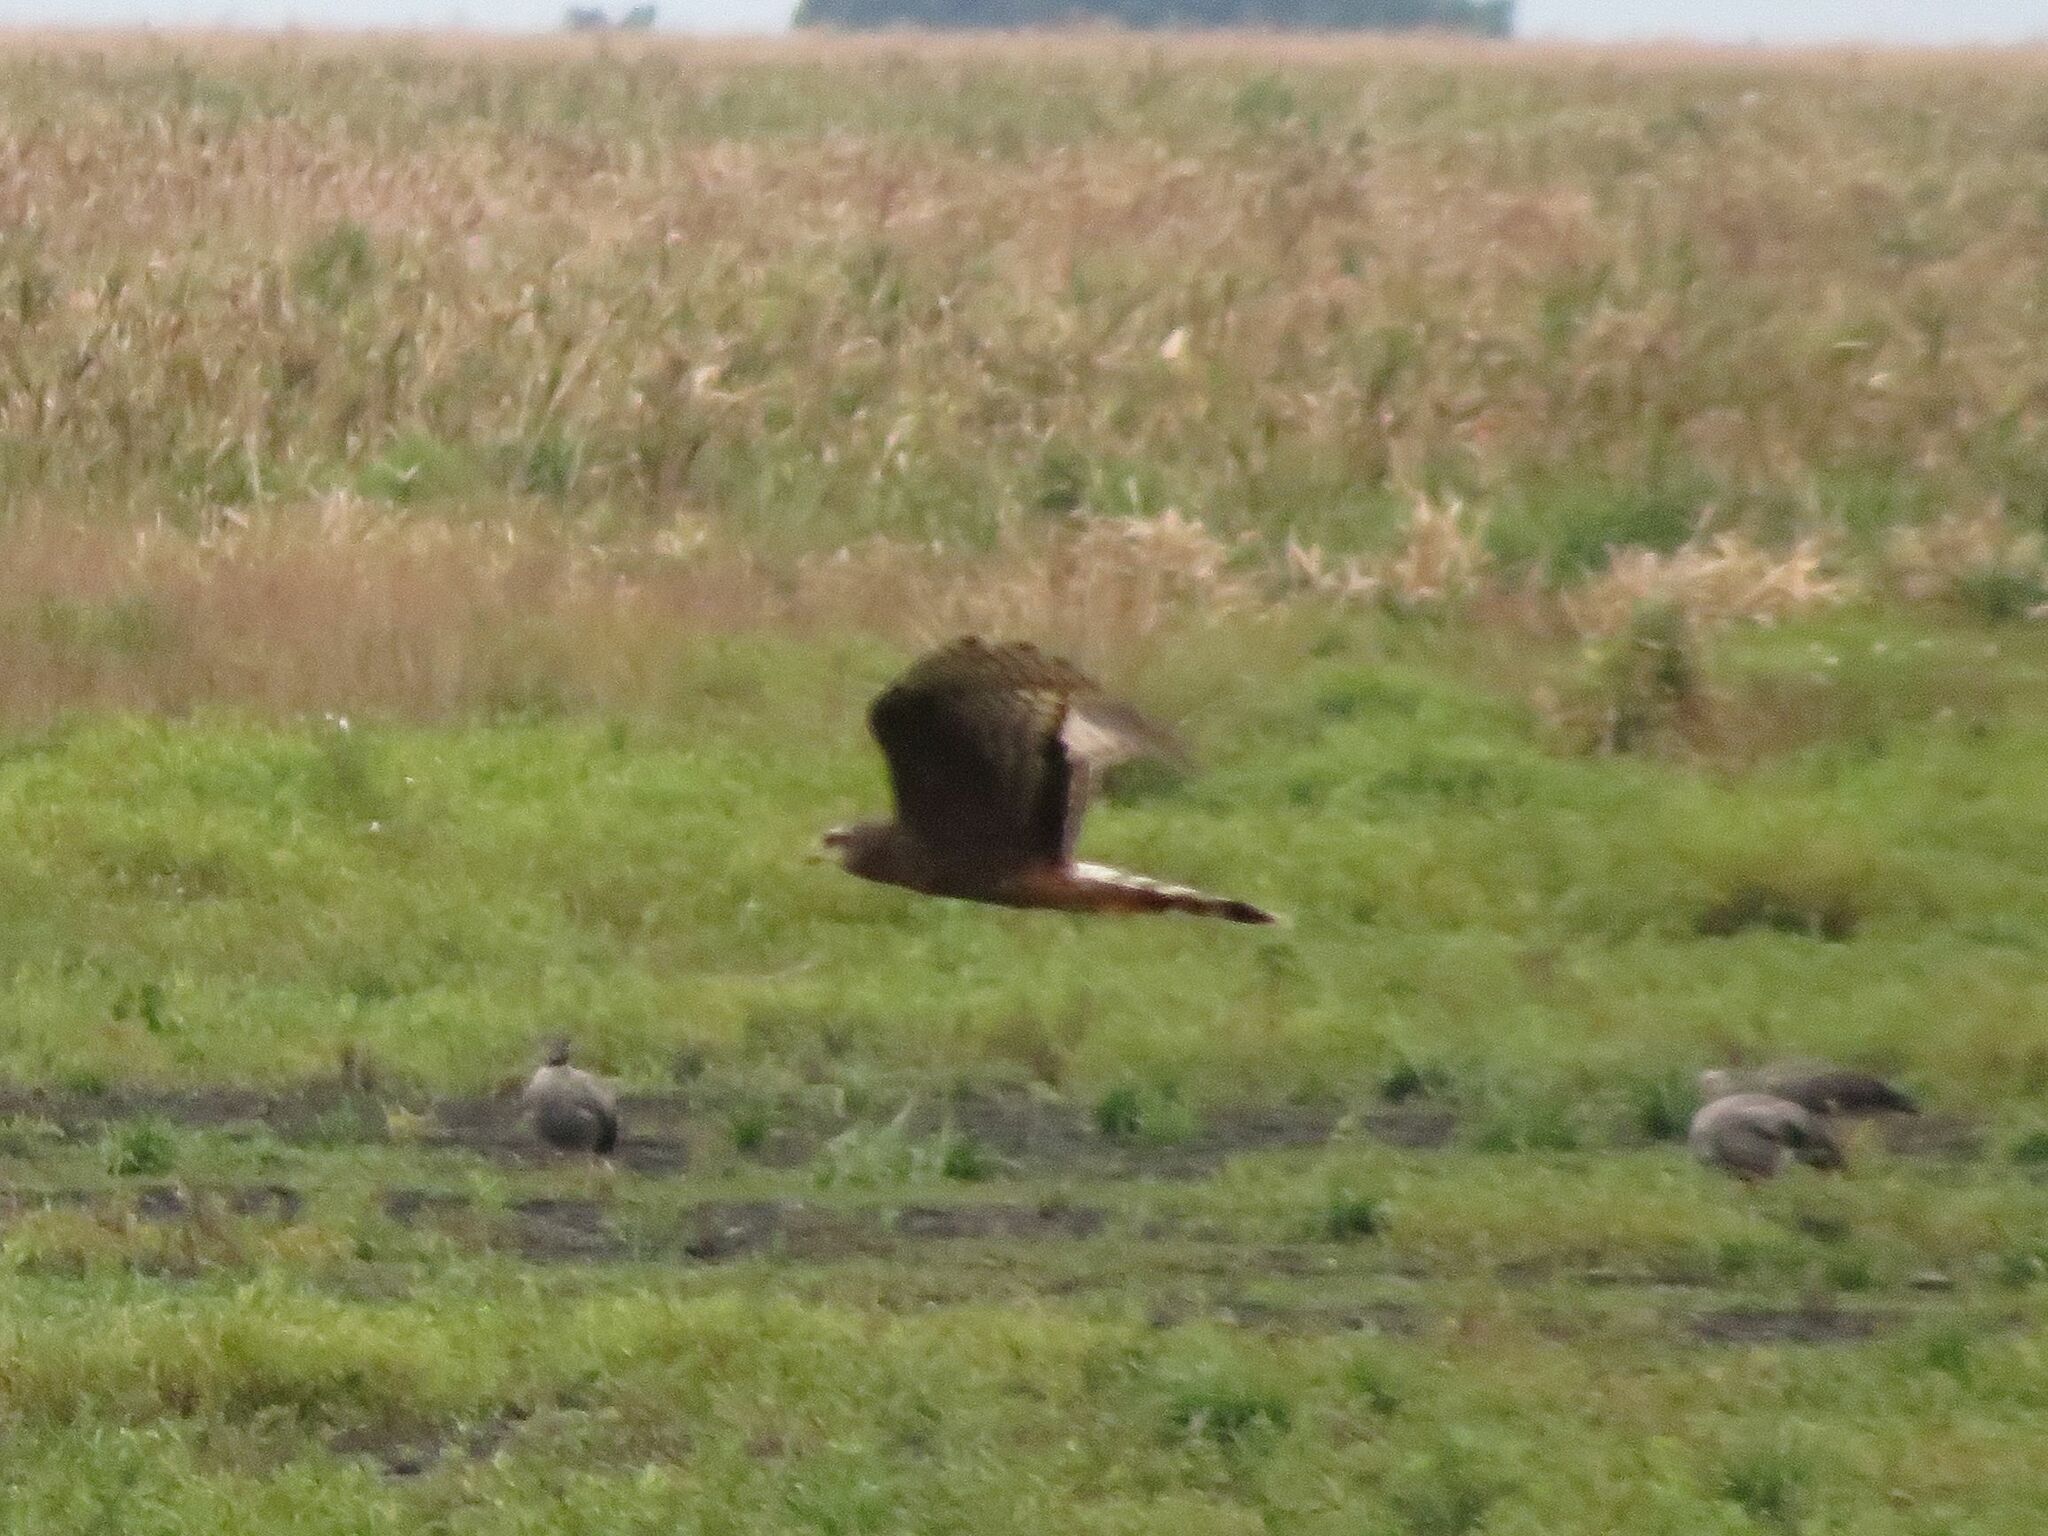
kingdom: Animalia
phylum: Chordata
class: Aves
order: Accipitriformes
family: Accipitridae
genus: Circus
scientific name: Circus buffoni
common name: Long-winged harrier
